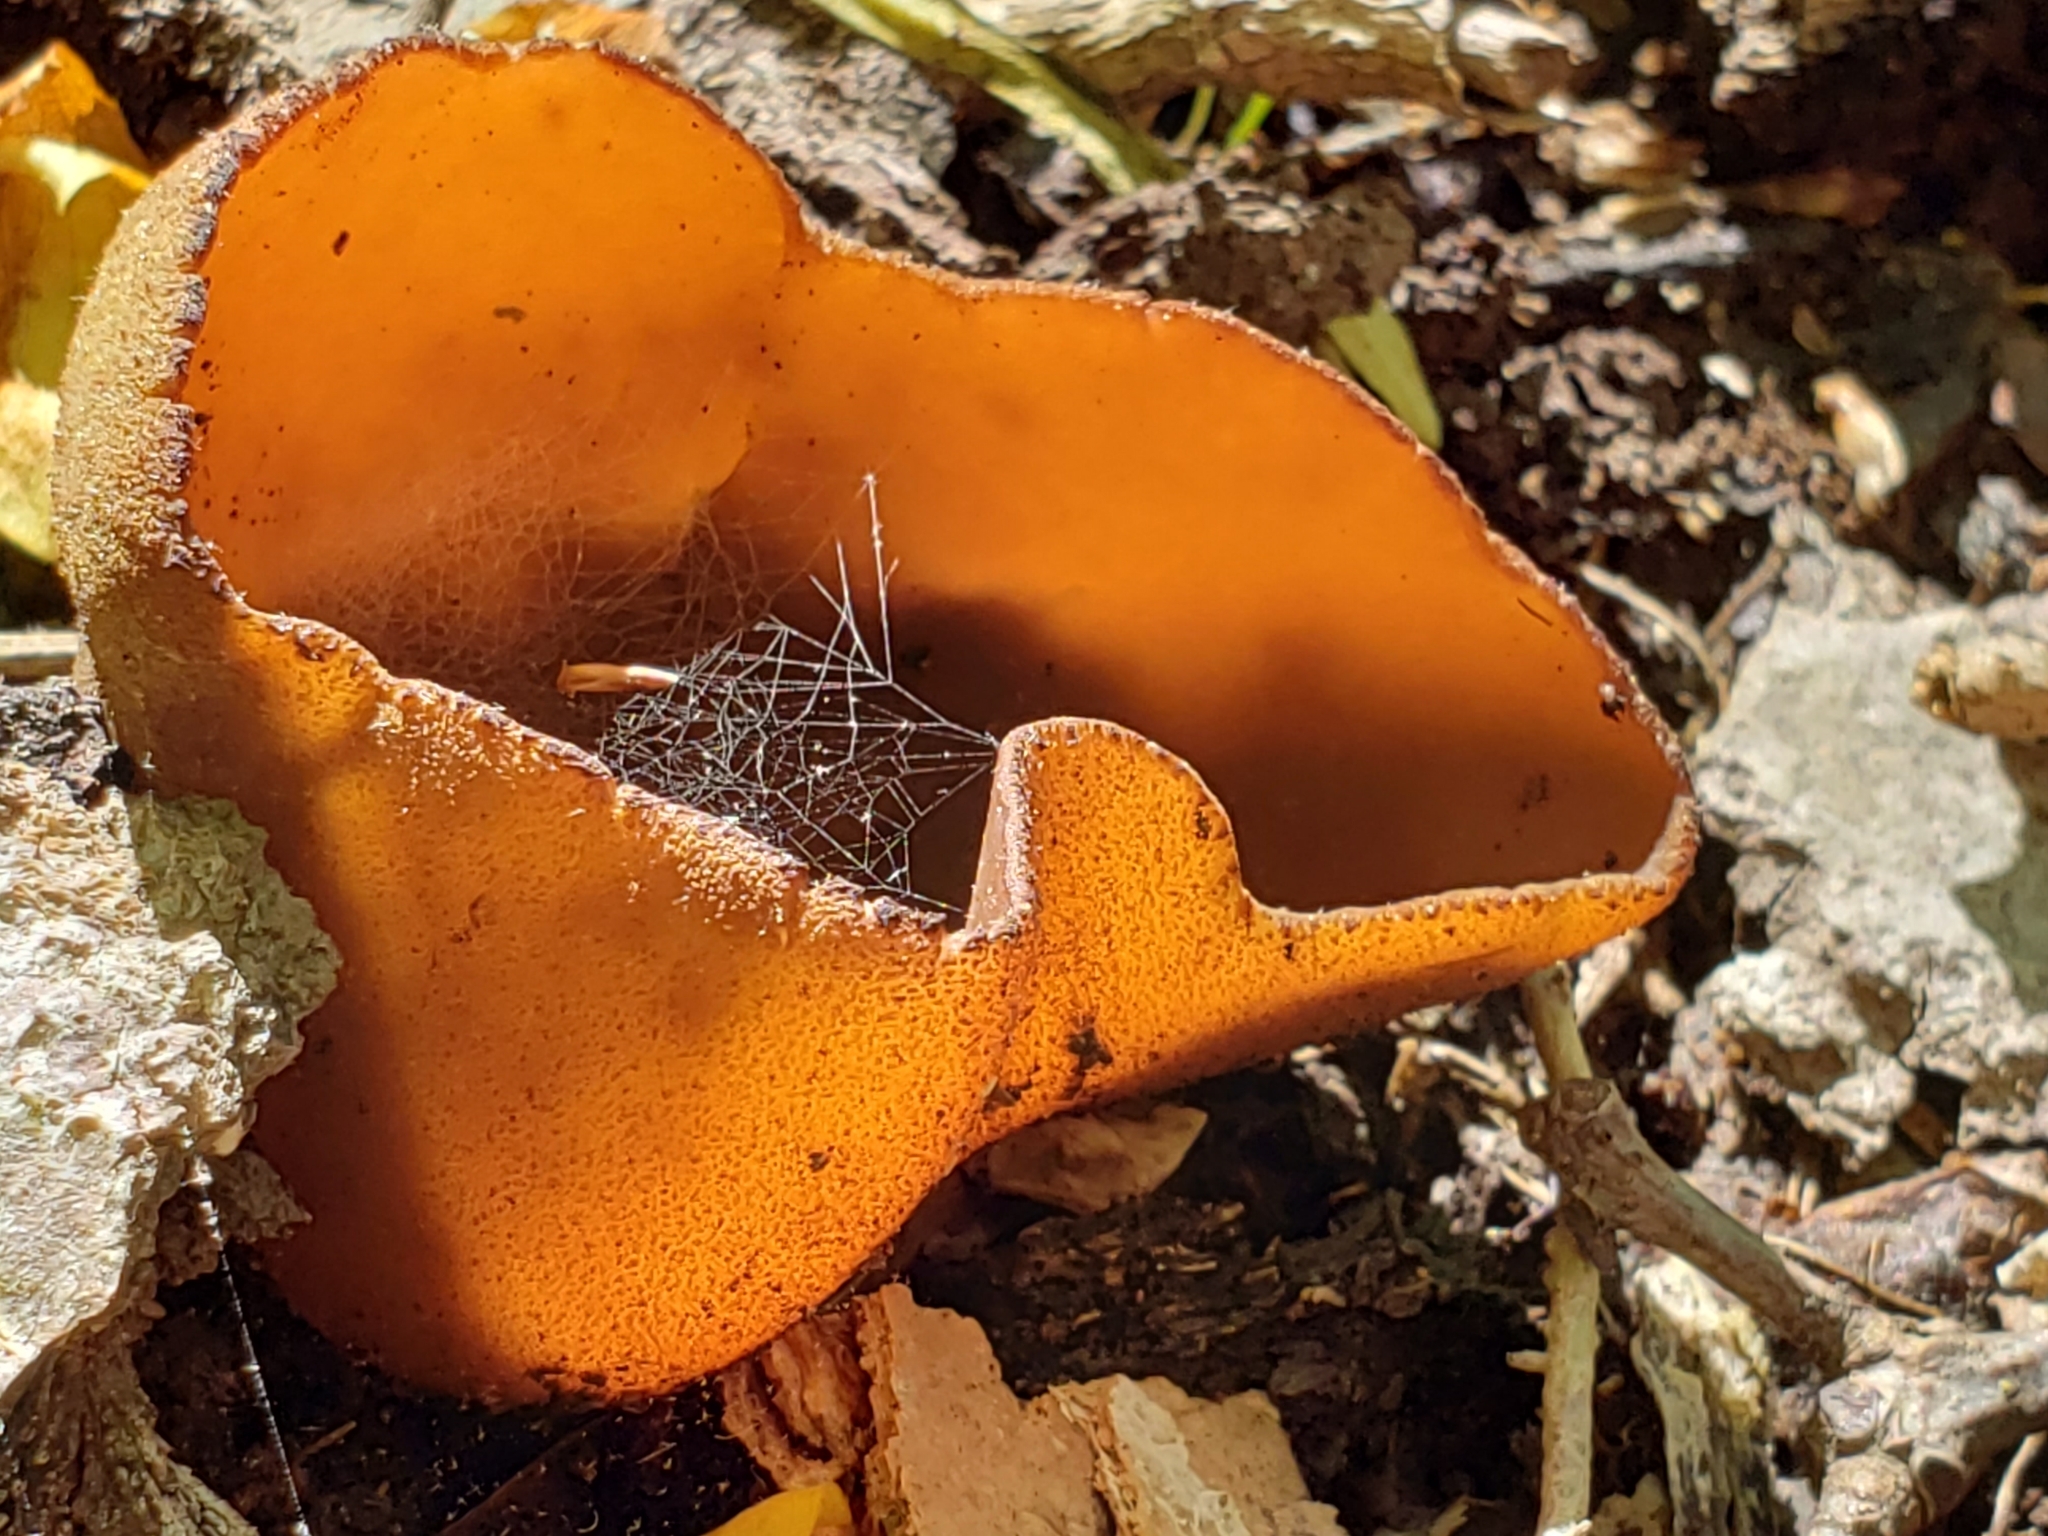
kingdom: Fungi
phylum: Ascomycota
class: Pezizomycetes
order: Pezizales
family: Pezizaceae
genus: Phylloscypha
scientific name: Phylloscypha phyllogena
